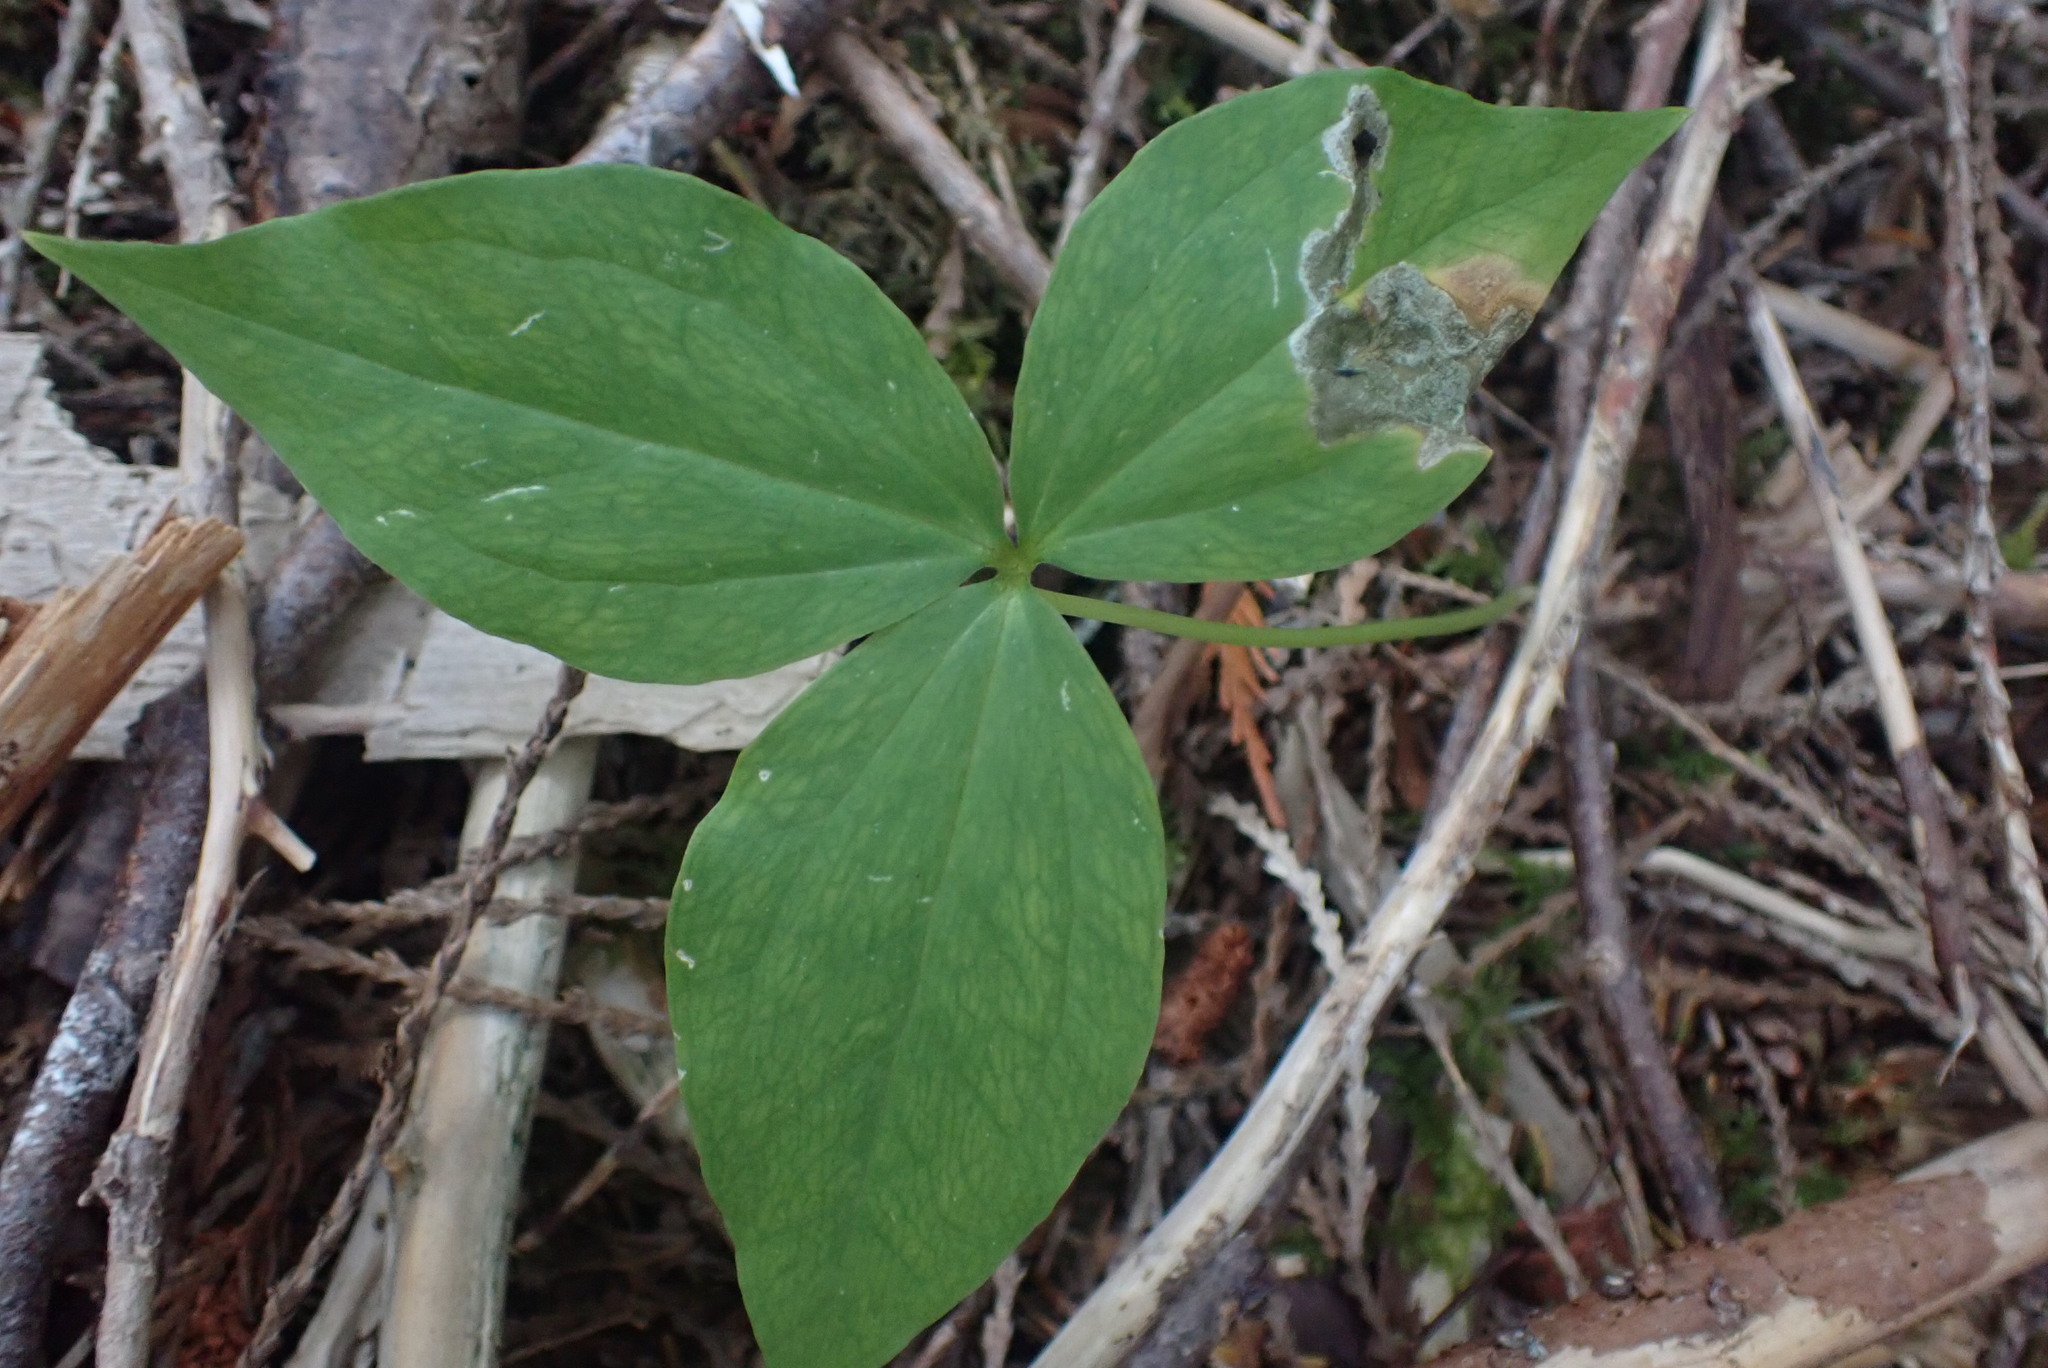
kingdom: Plantae
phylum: Tracheophyta
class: Liliopsida
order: Liliales
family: Melanthiaceae
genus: Trillium
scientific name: Trillium ovatum
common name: Pacific trillium
